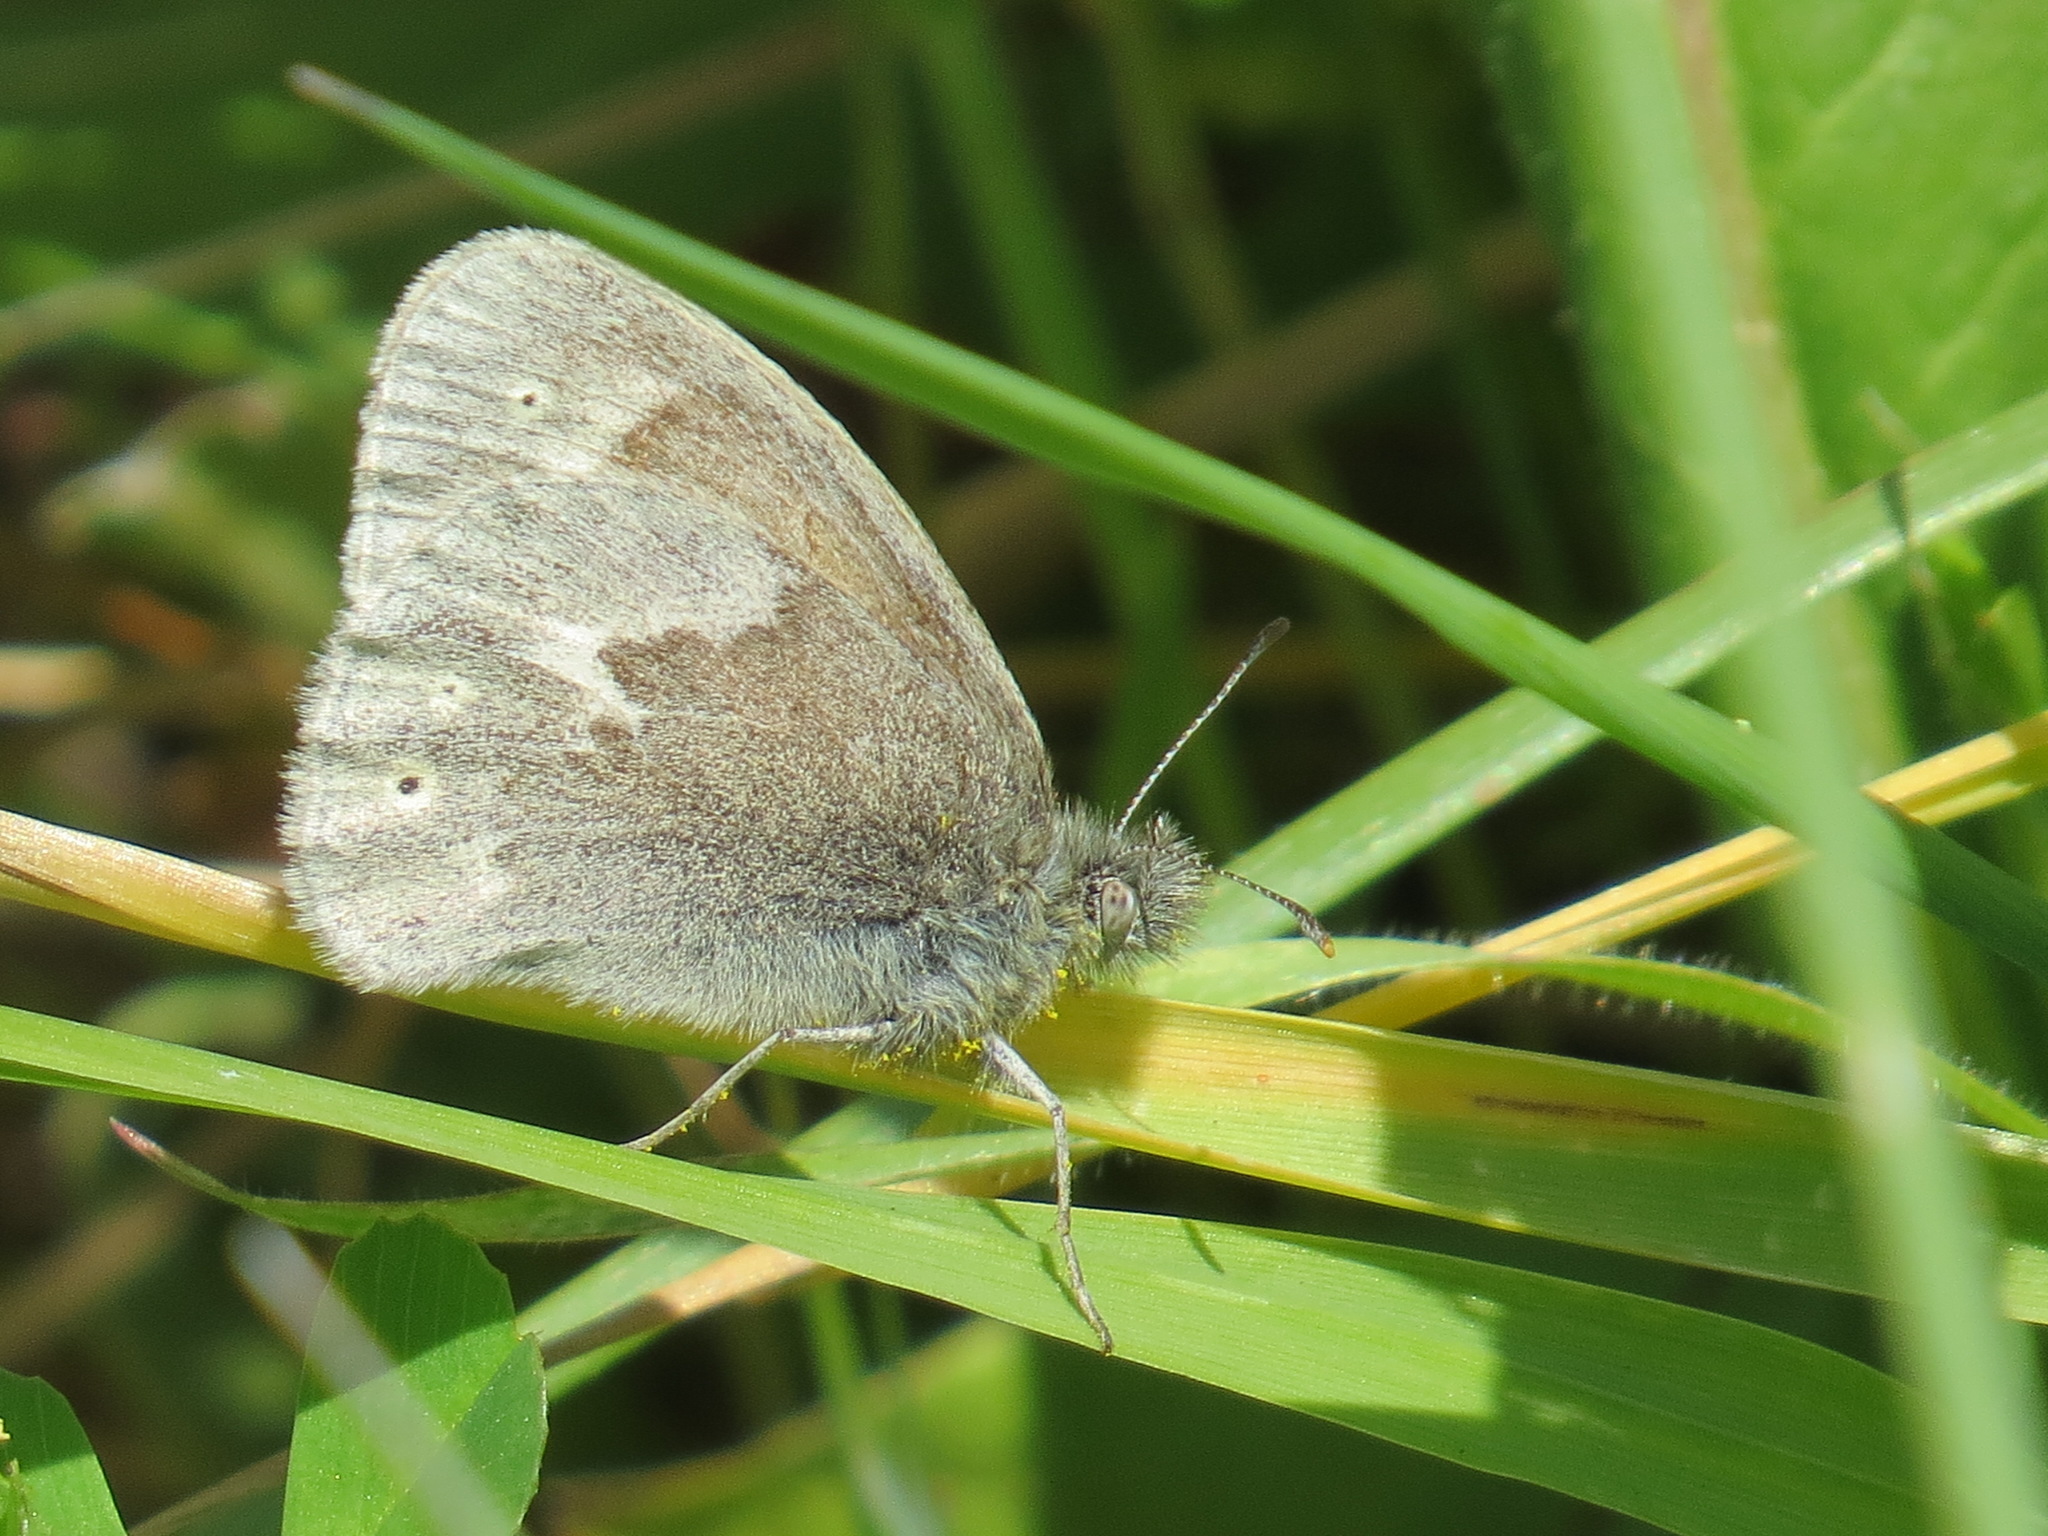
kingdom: Animalia
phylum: Arthropoda
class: Insecta
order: Lepidoptera
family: Nymphalidae
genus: Coenonympha
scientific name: Coenonympha california
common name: Common ringlet
